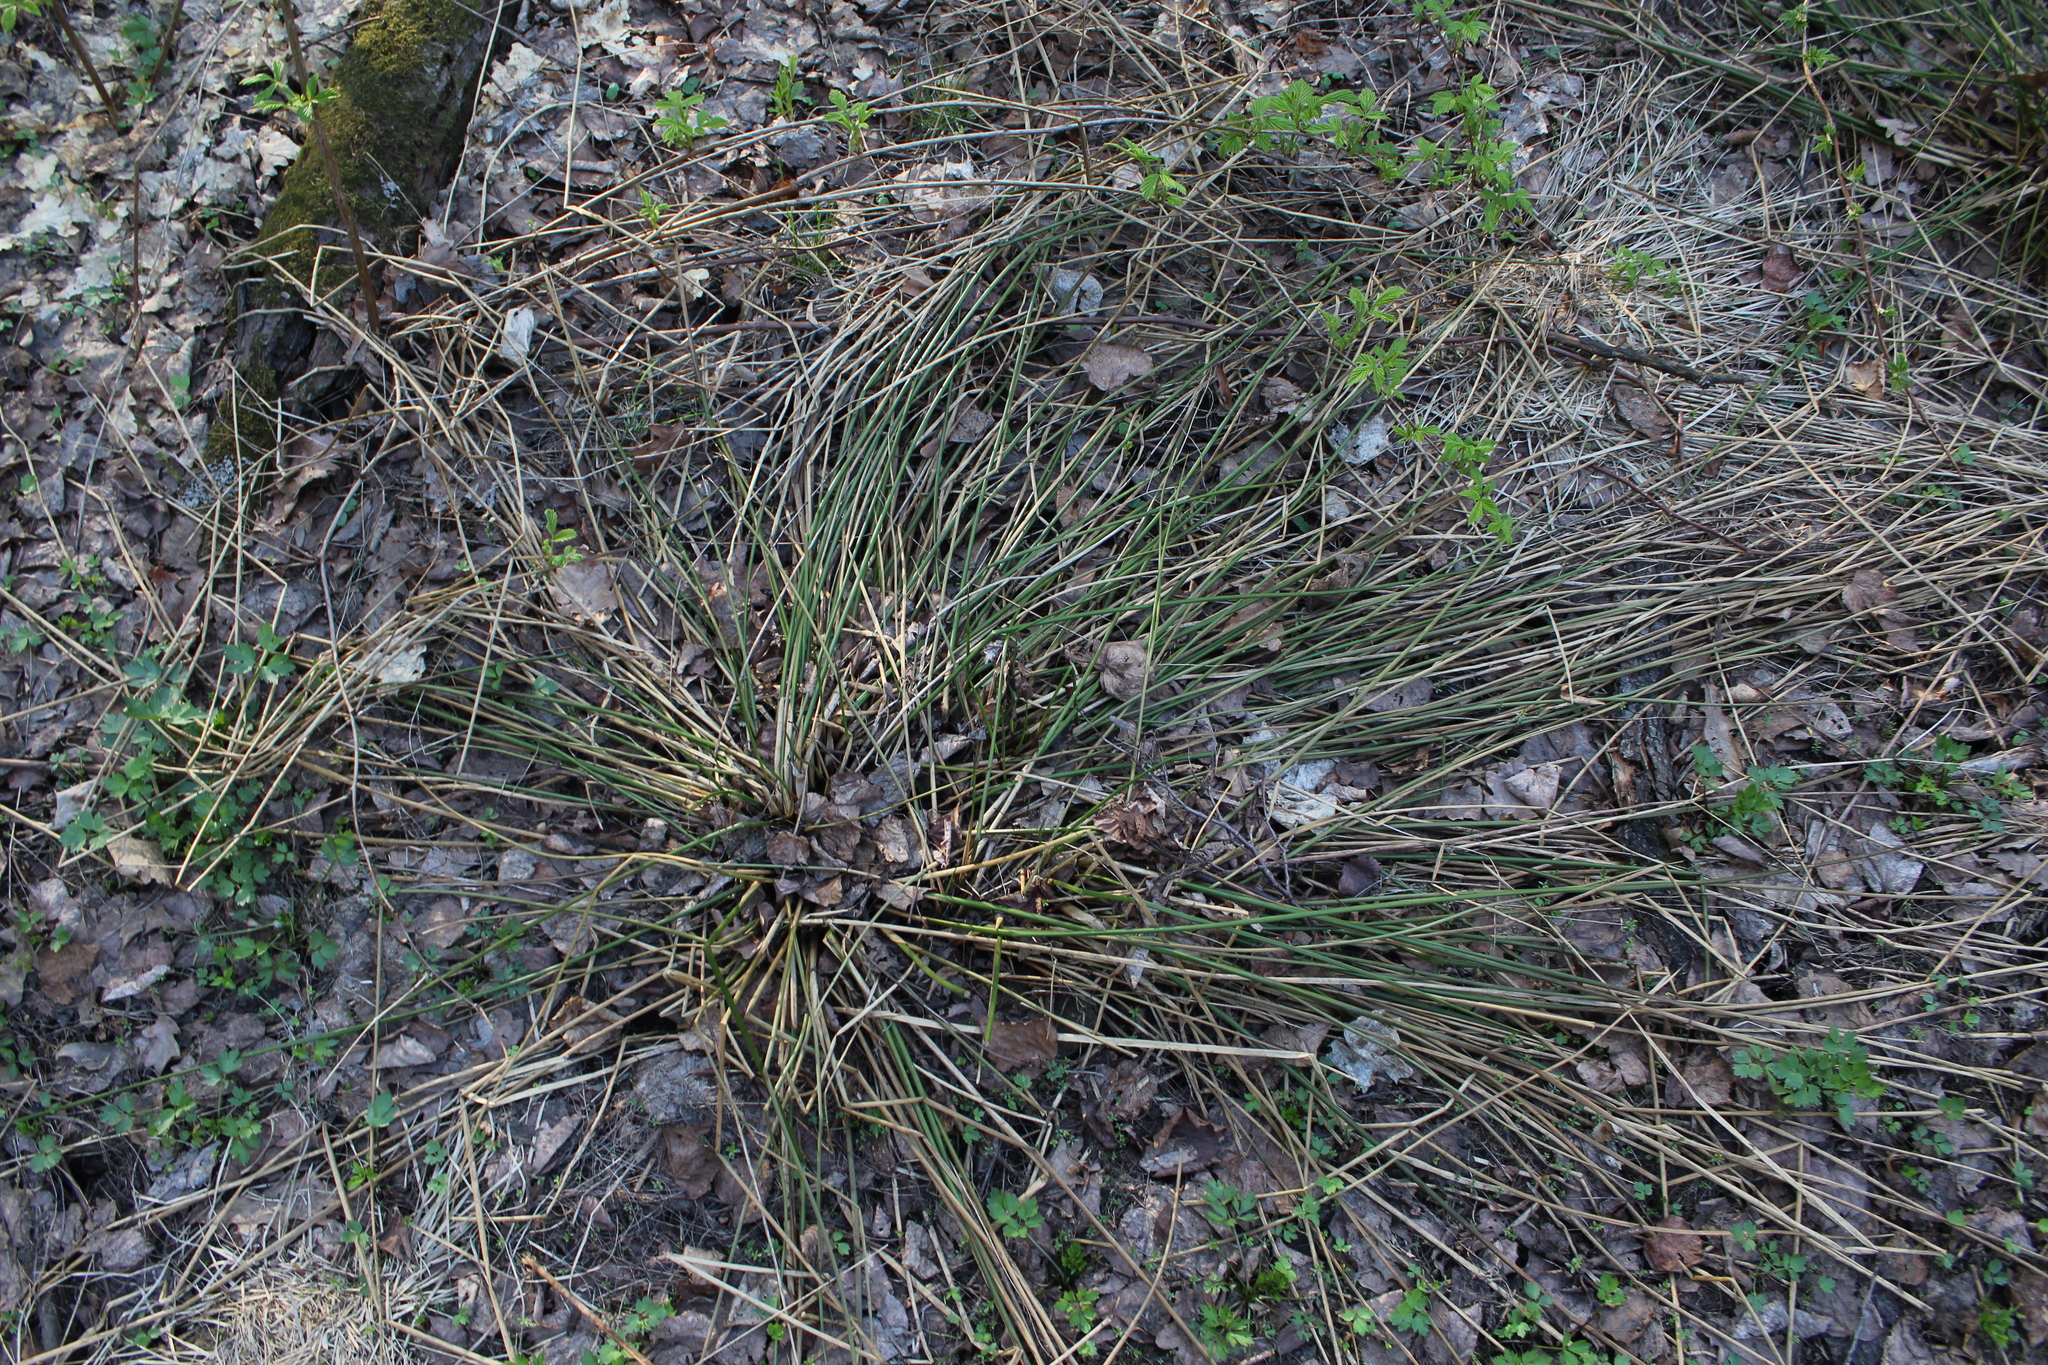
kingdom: Plantae
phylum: Tracheophyta
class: Liliopsida
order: Poales
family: Juncaceae
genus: Juncus
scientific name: Juncus effusus
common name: Soft rush
